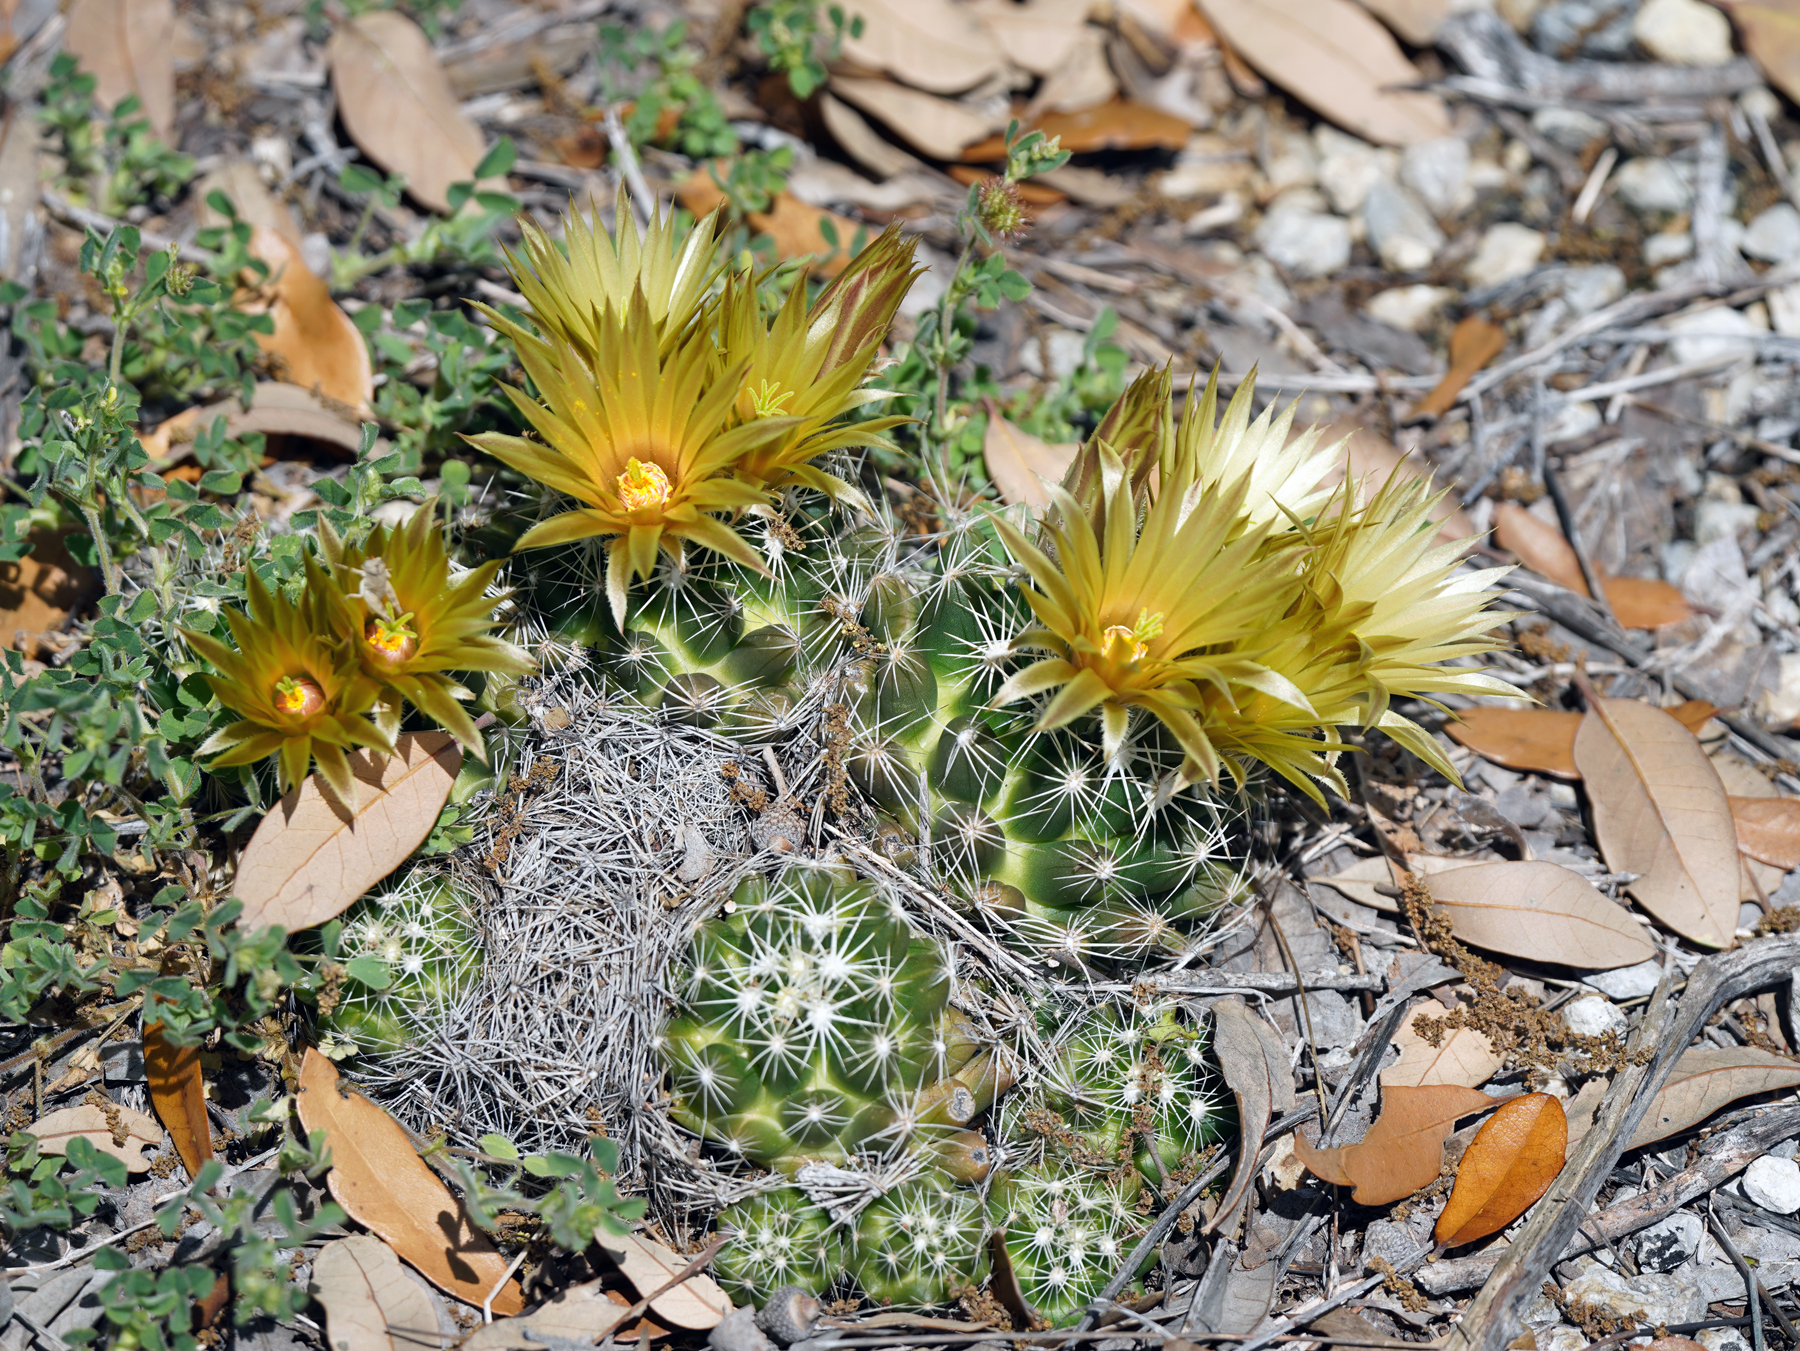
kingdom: Plantae
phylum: Tracheophyta
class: Magnoliopsida
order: Caryophyllales
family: Cactaceae
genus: Pelecyphora
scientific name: Pelecyphora missouriensis
